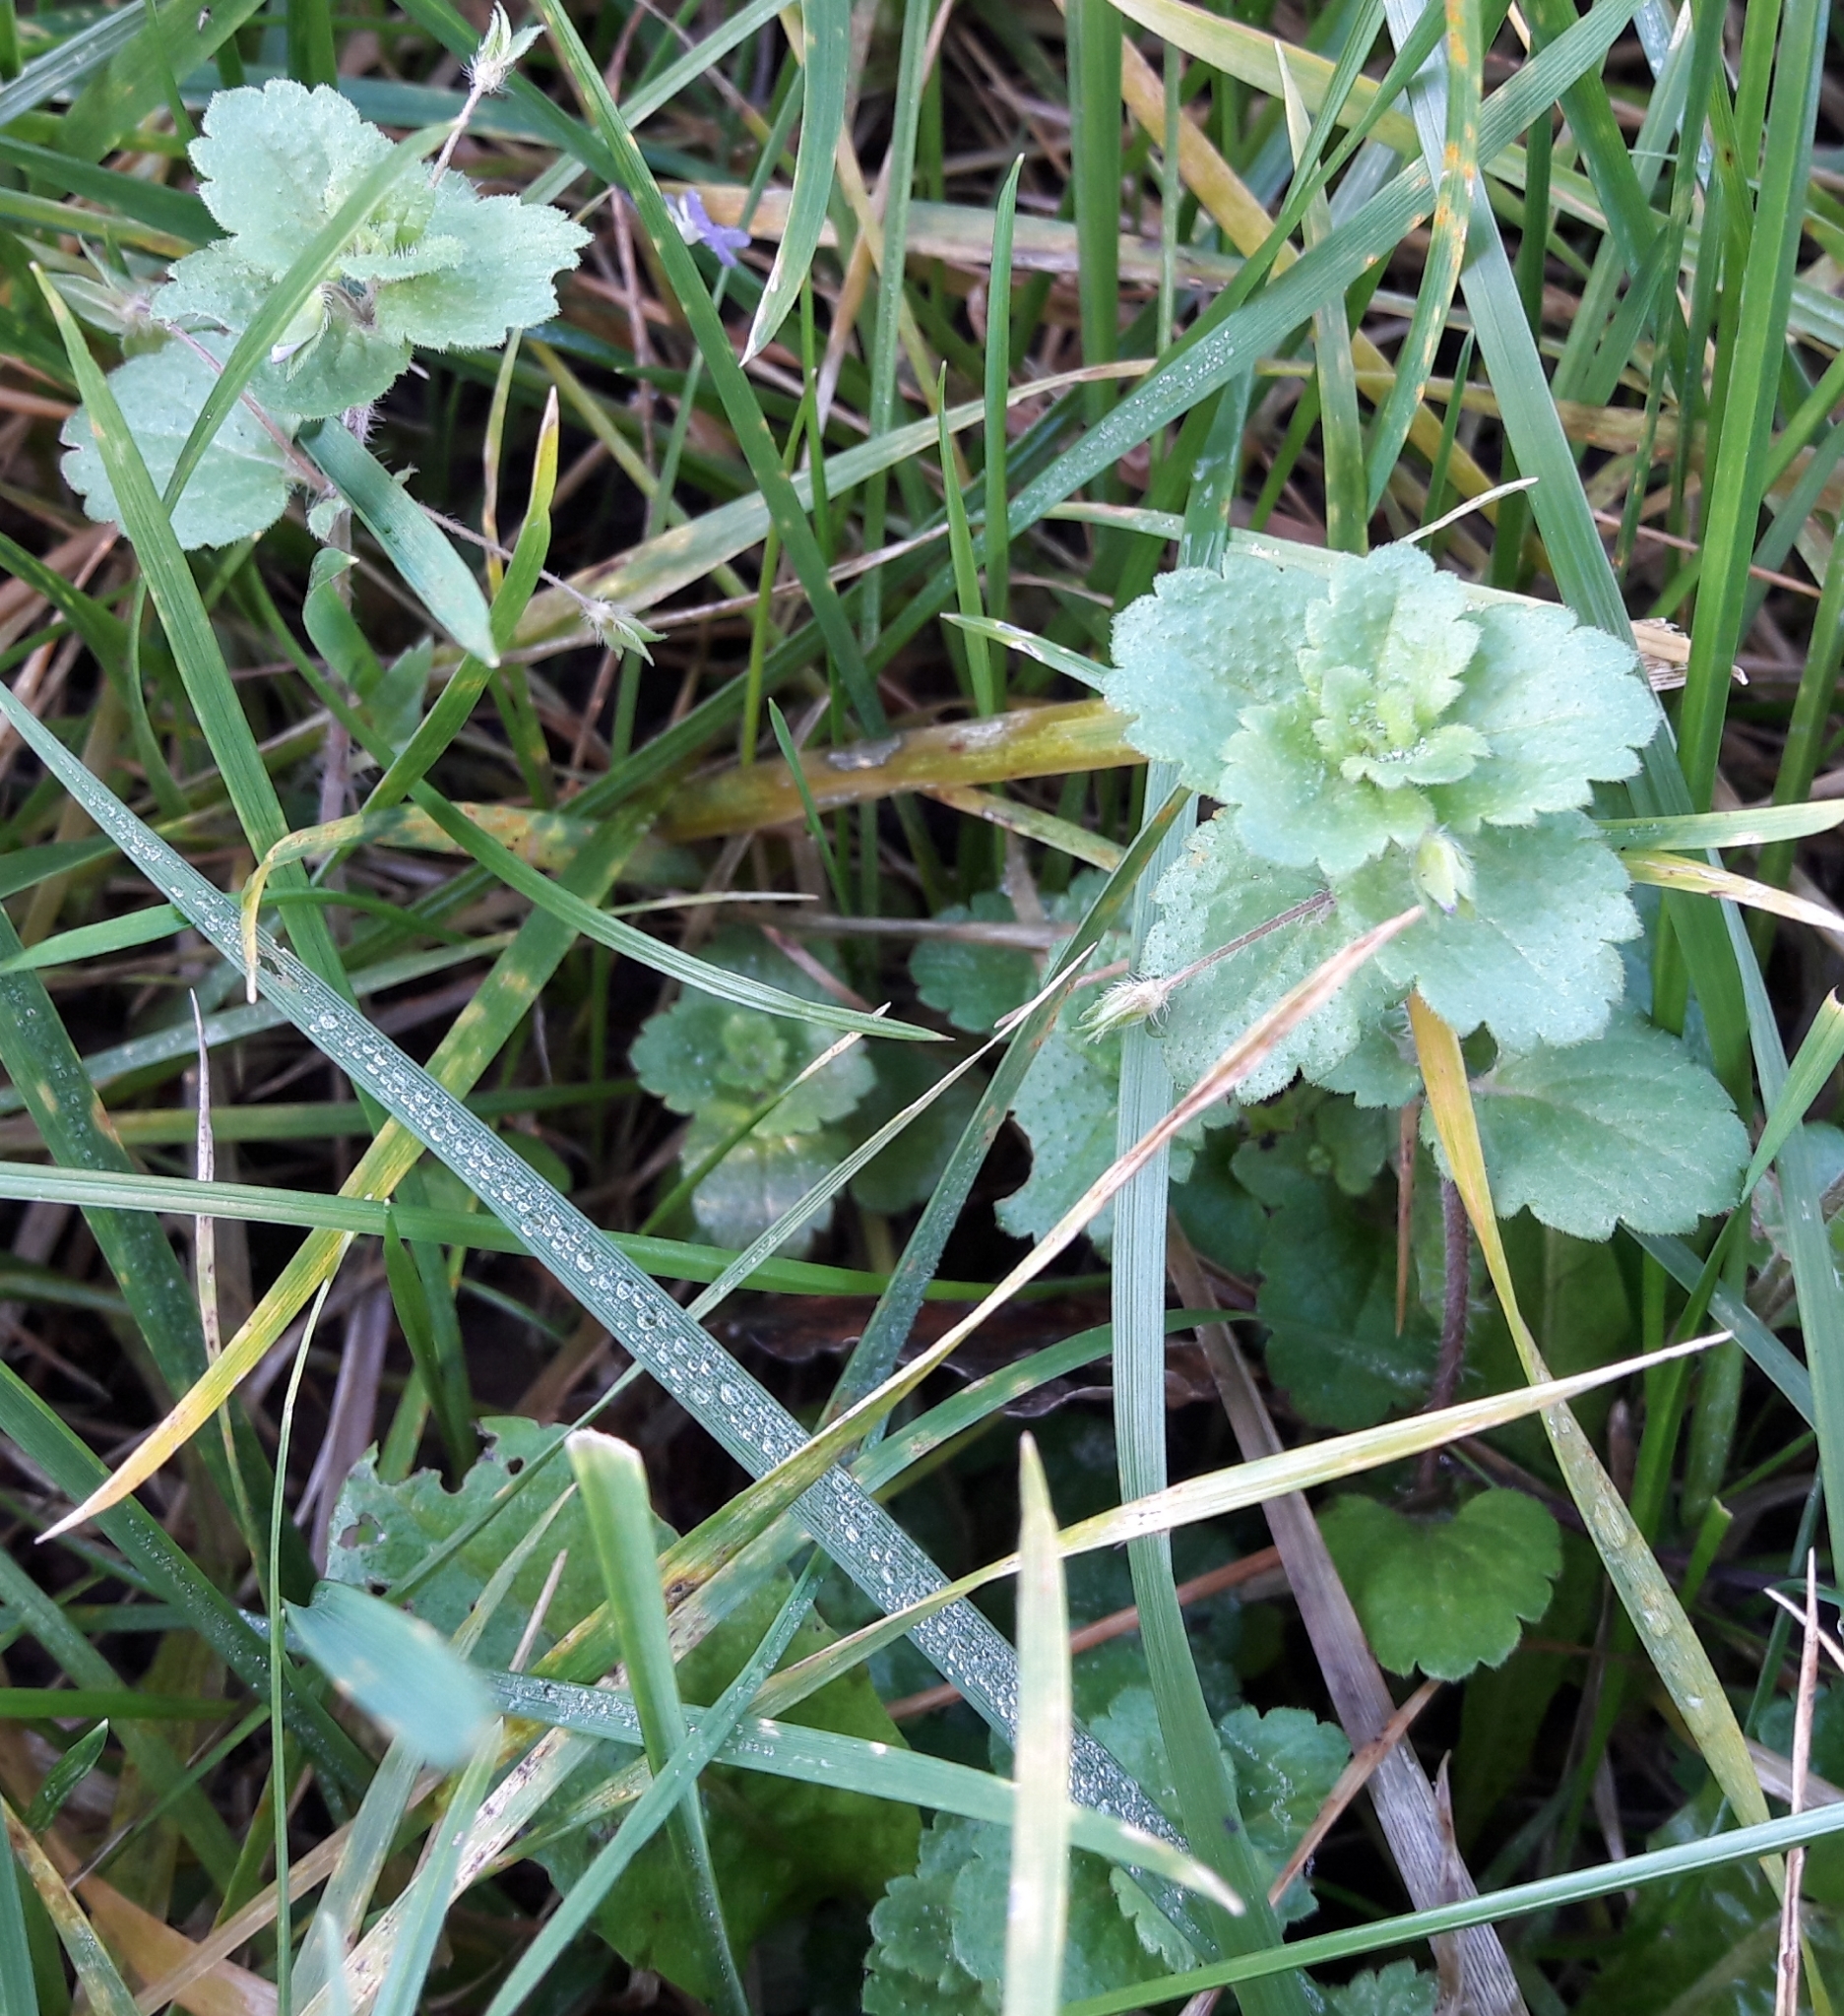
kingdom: Plantae
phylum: Tracheophyta
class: Magnoliopsida
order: Lamiales
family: Plantaginaceae
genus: Veronica
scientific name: Veronica persica
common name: Common field-speedwell
